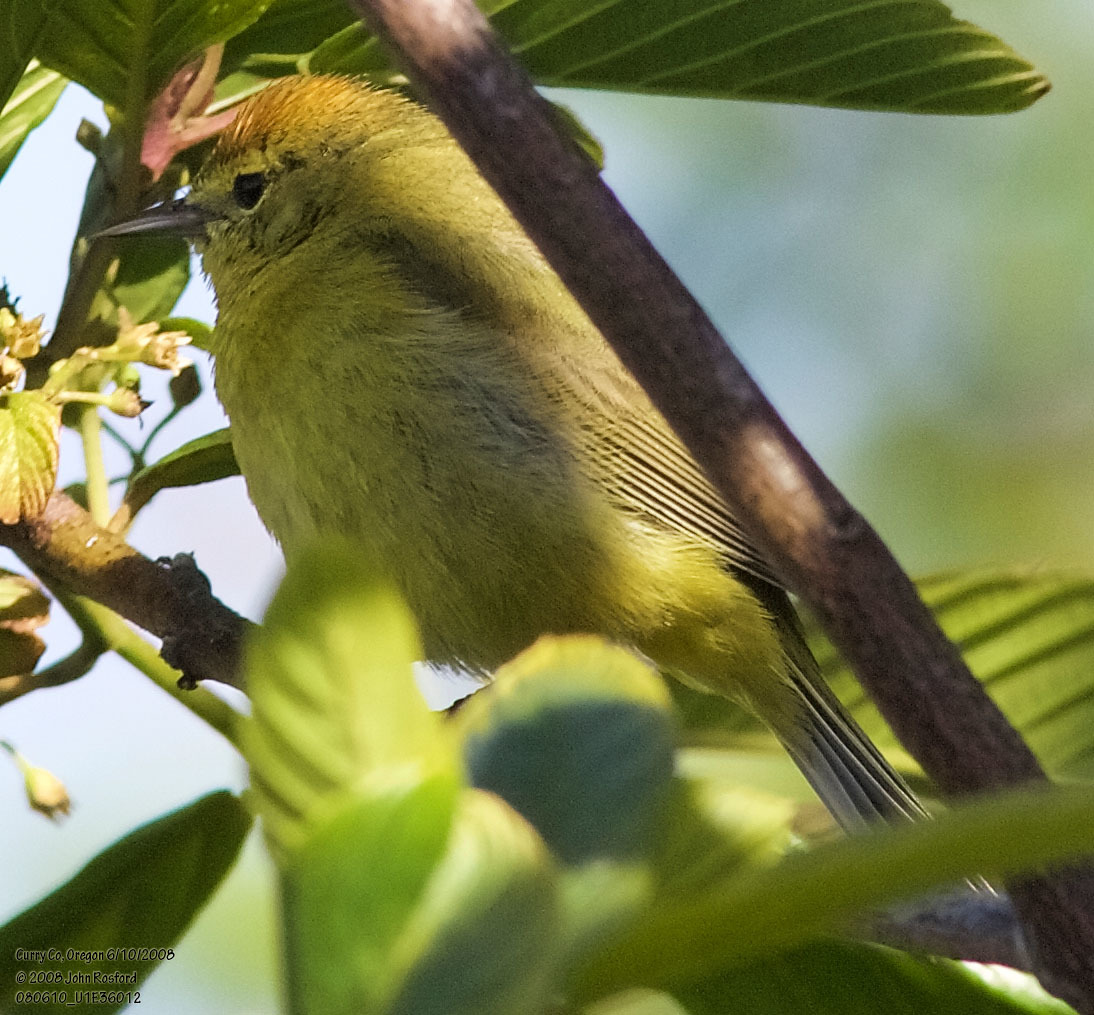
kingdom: Animalia
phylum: Chordata
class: Aves
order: Passeriformes
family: Parulidae
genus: Leiothlypis
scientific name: Leiothlypis celata
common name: Orange-crowned warbler
